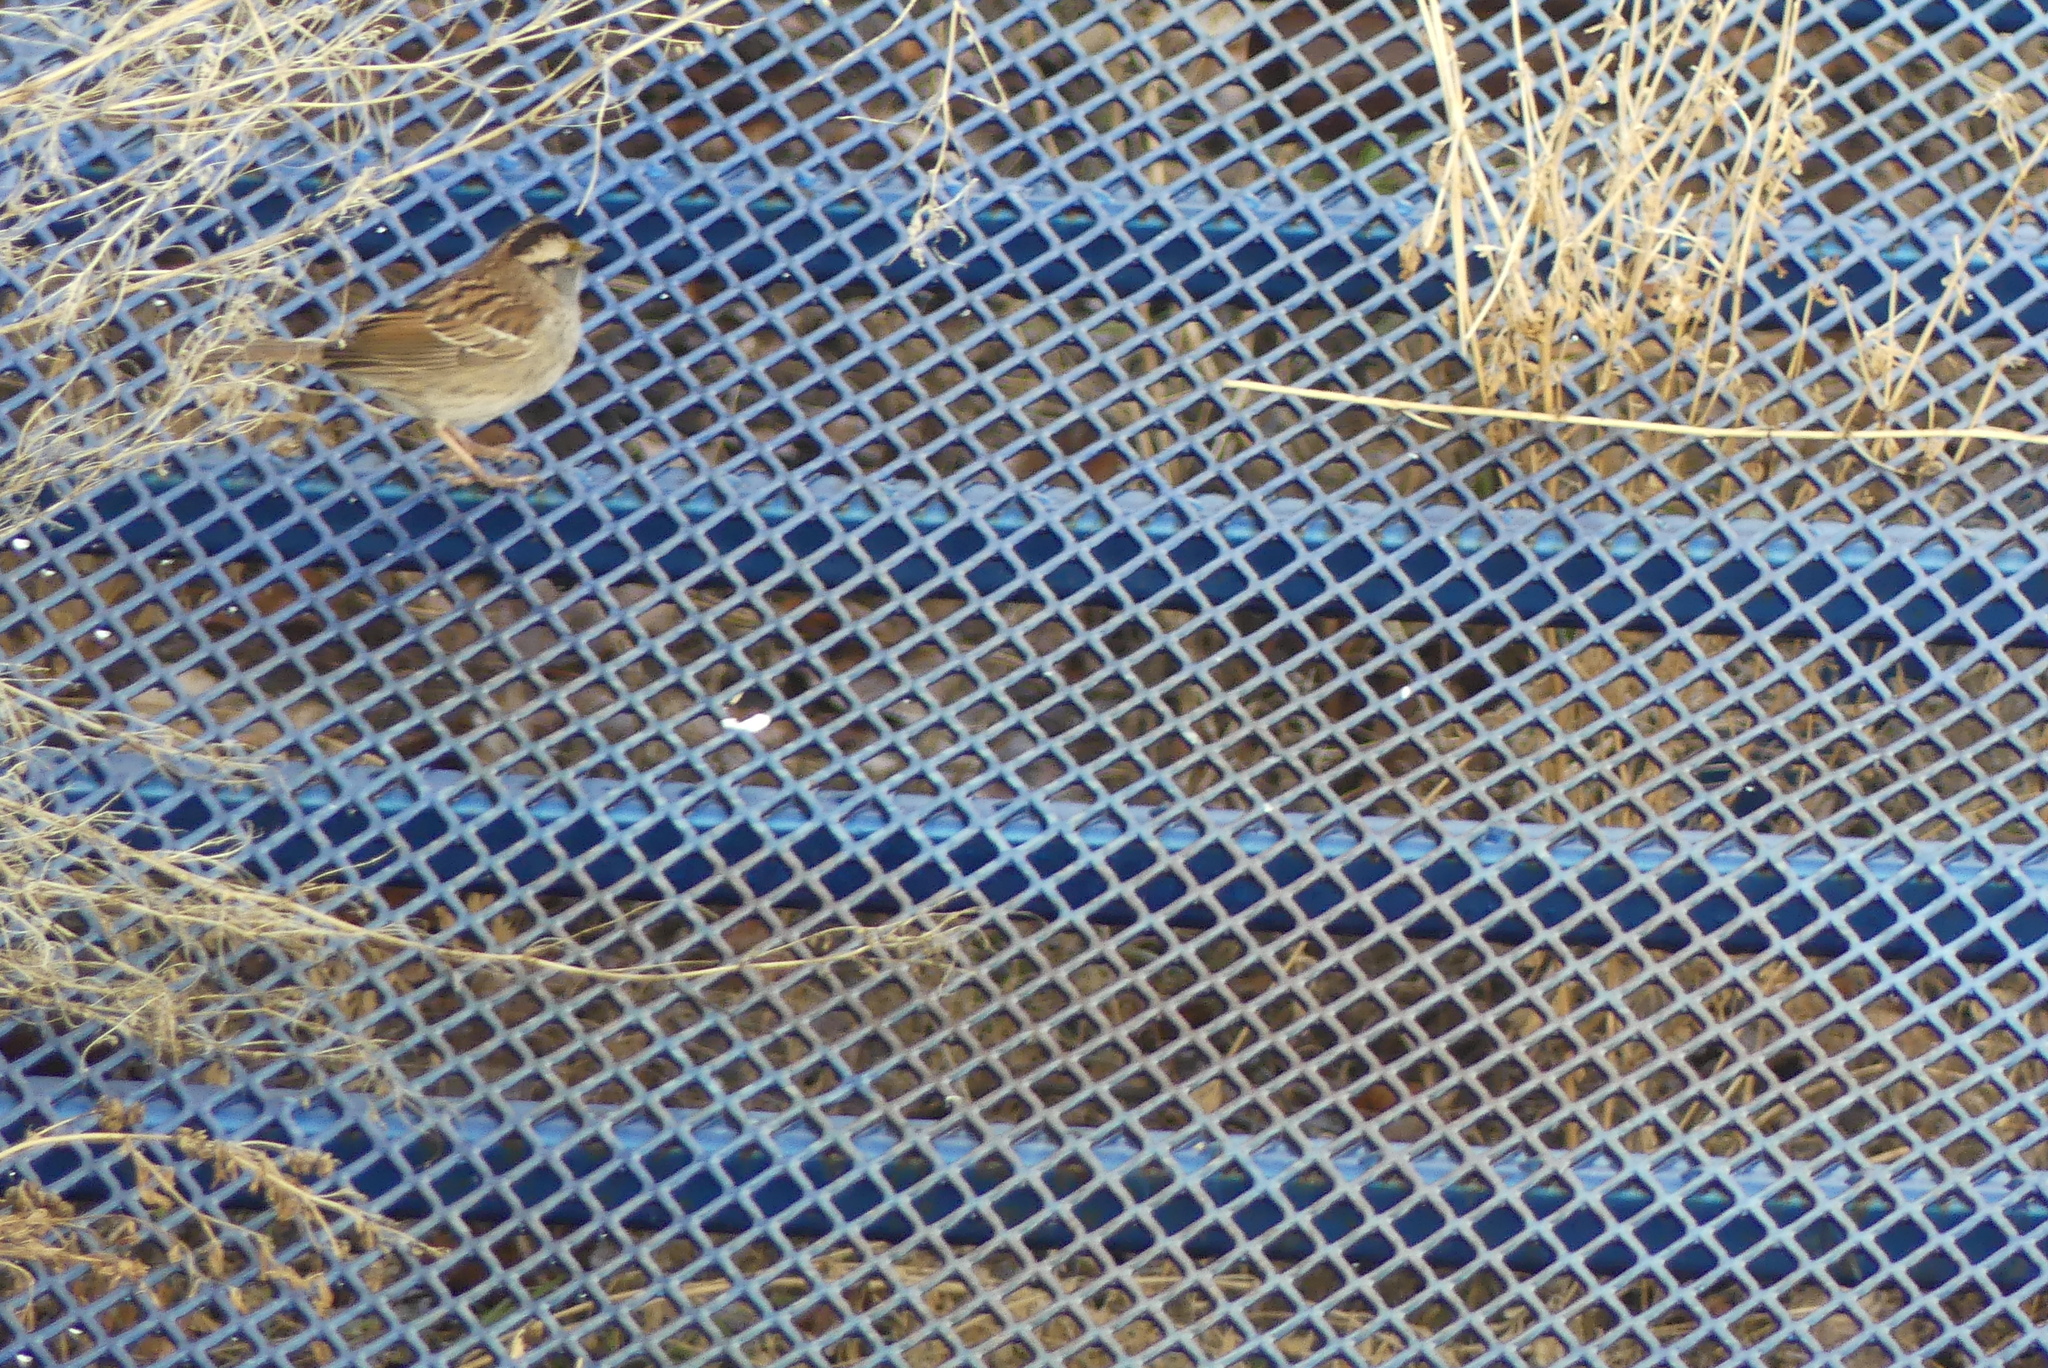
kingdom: Animalia
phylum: Chordata
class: Aves
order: Passeriformes
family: Passerellidae
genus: Zonotrichia
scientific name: Zonotrichia albicollis
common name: White-throated sparrow
